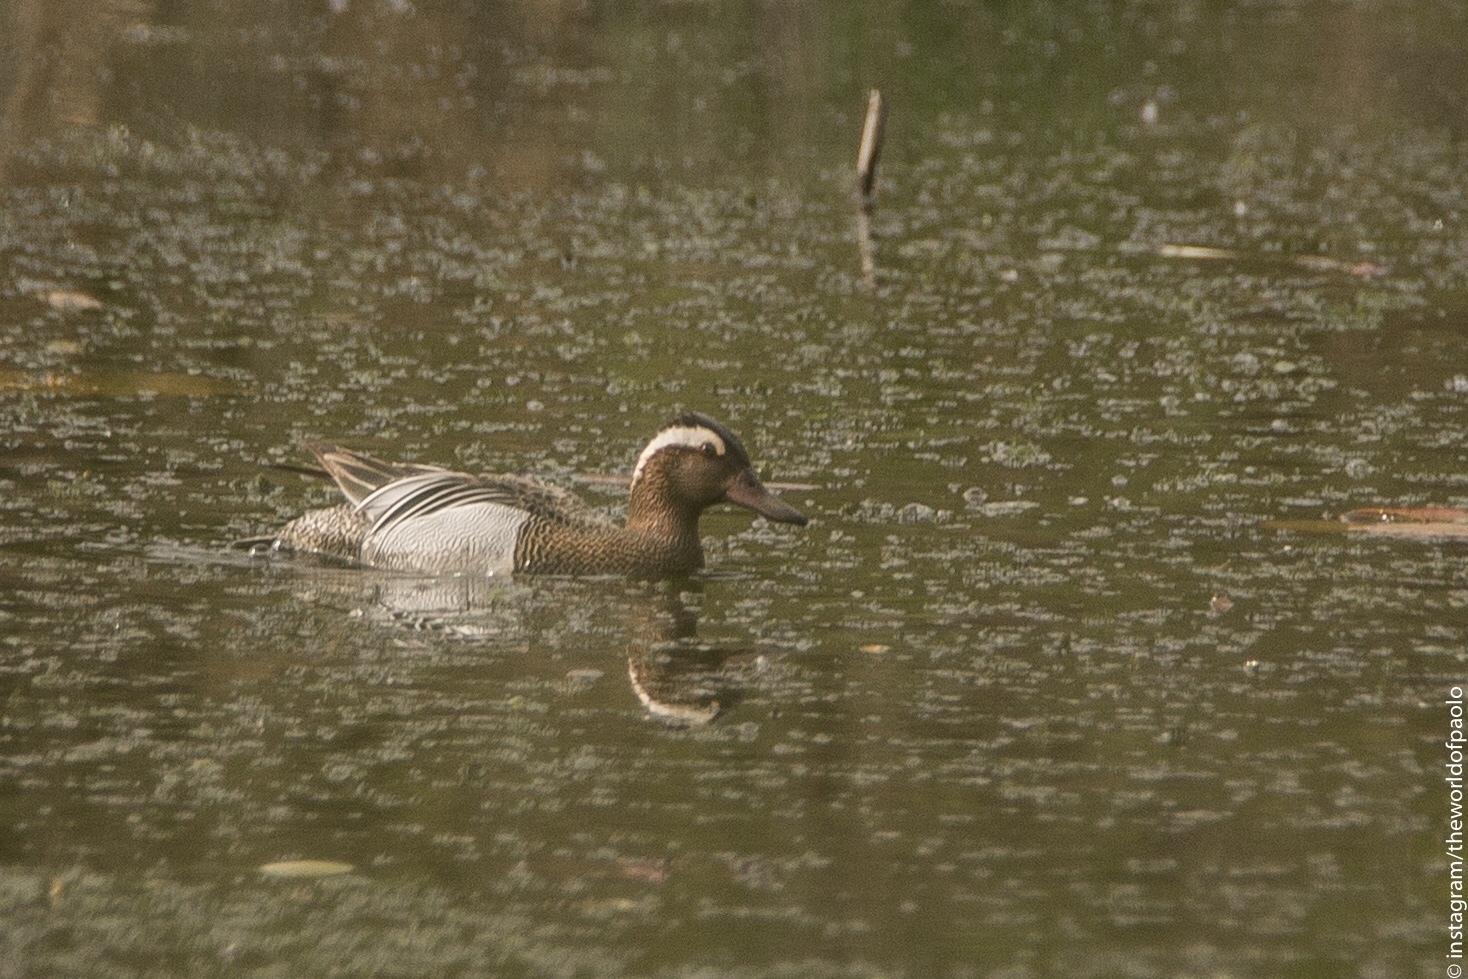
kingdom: Animalia
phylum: Chordata
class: Aves
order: Anseriformes
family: Anatidae
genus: Spatula
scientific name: Spatula querquedula
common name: Garganey
